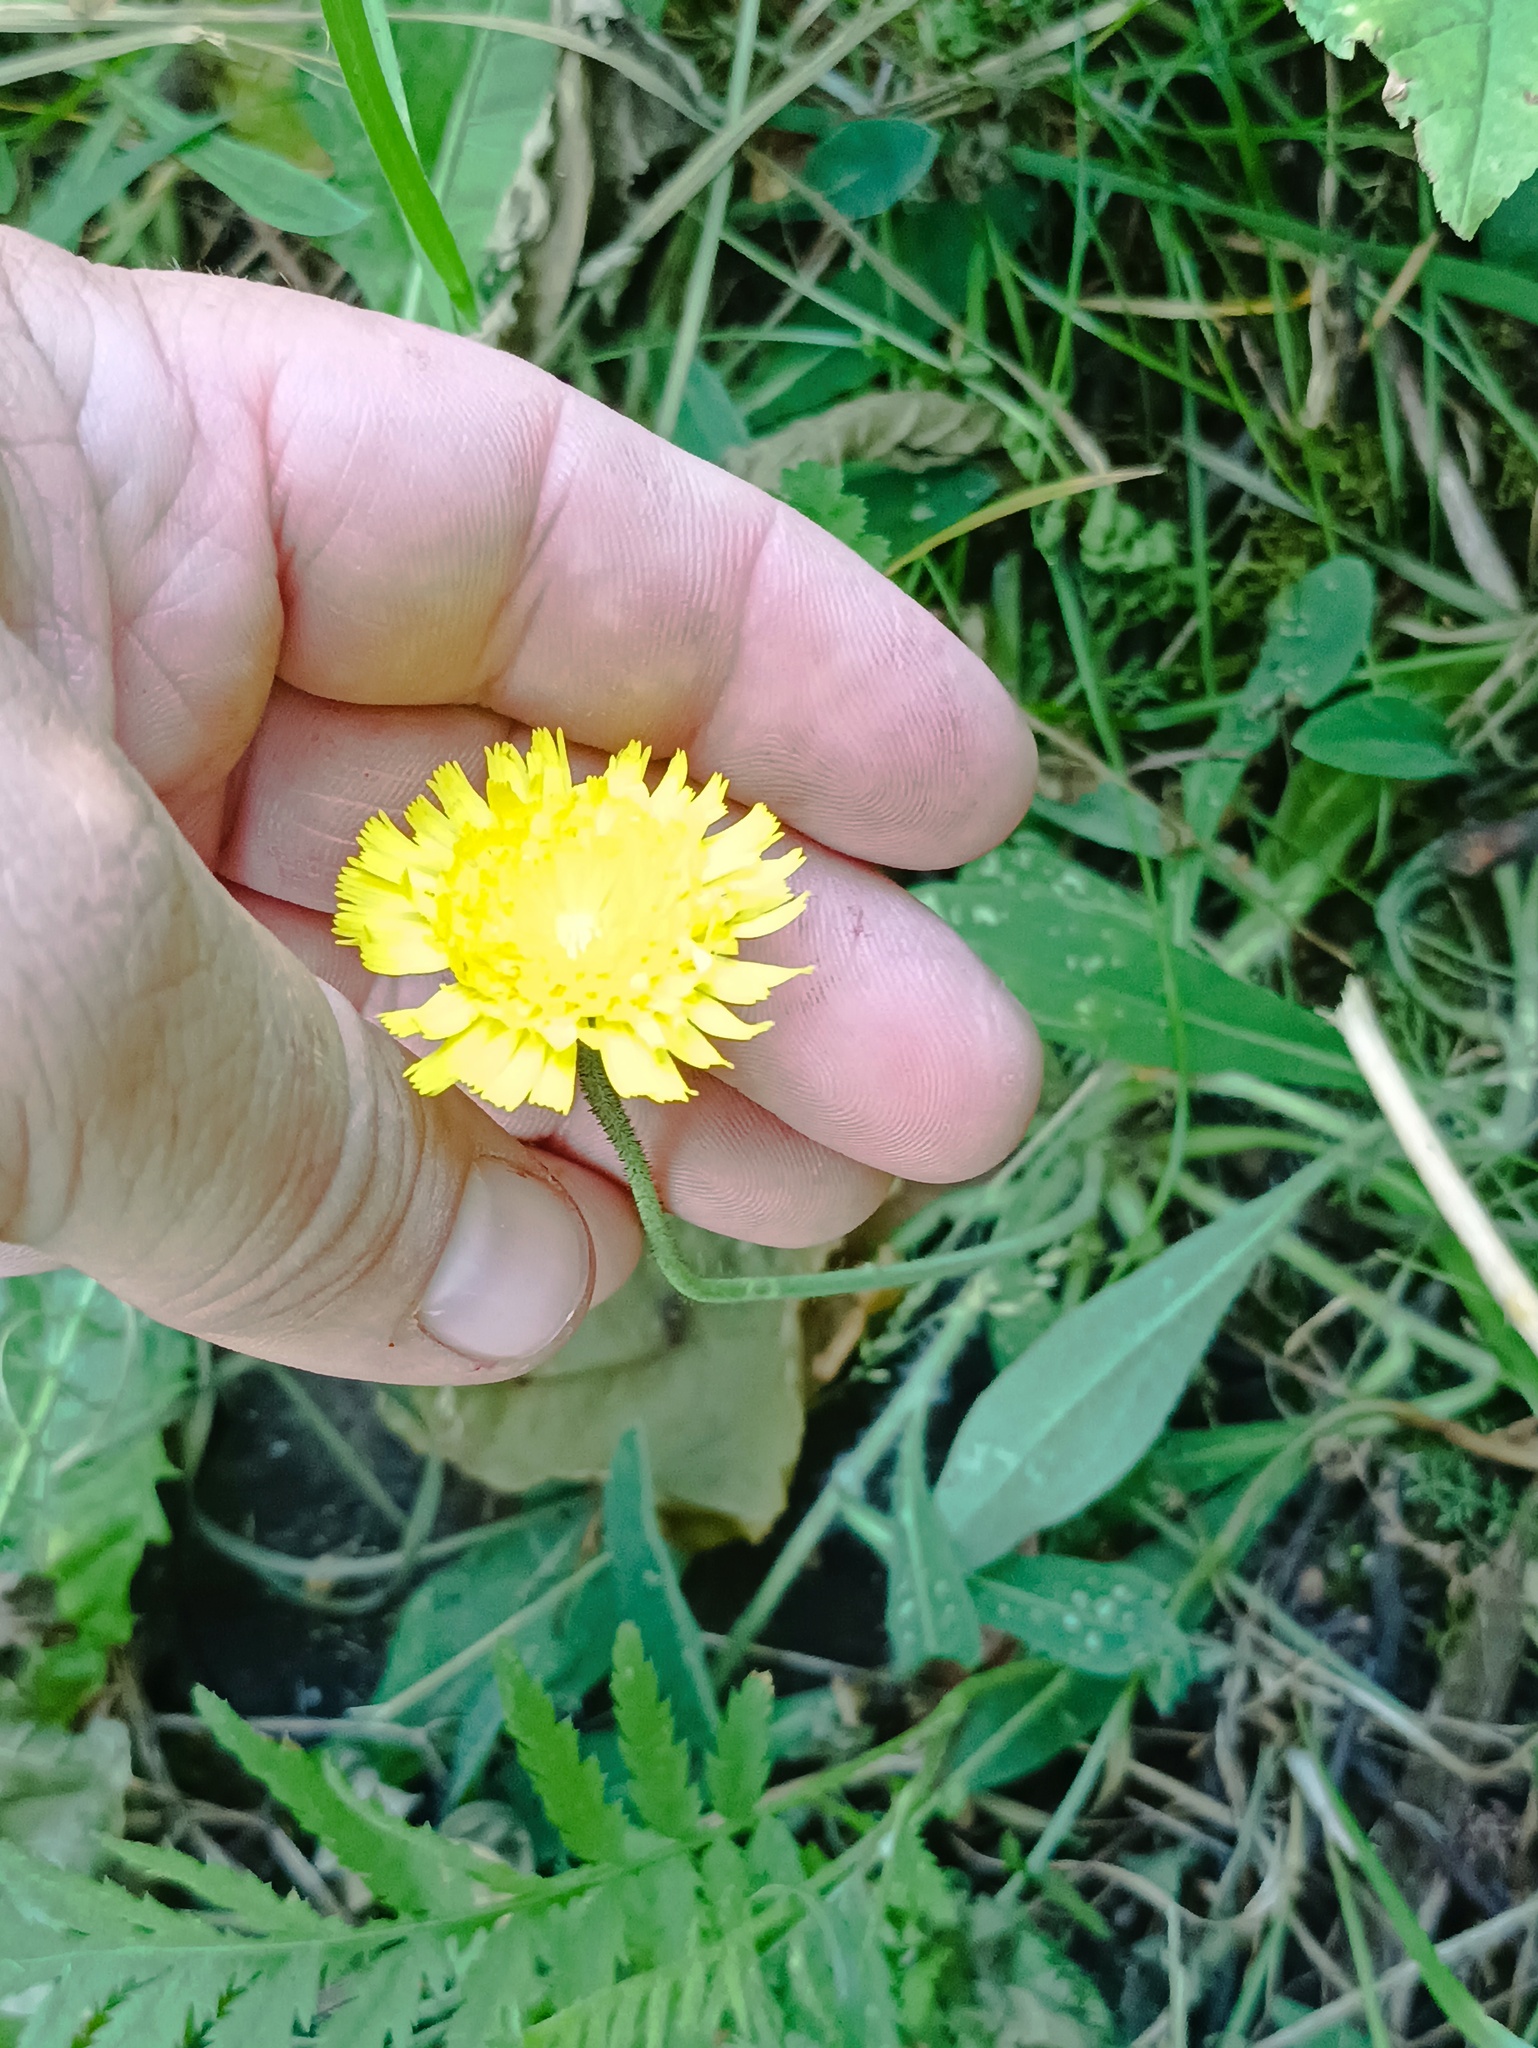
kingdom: Plantae
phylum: Tracheophyta
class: Magnoliopsida
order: Asterales
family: Asteraceae
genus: Pilosella
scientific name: Pilosella officinarum
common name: Mouse-ear hawkweed
